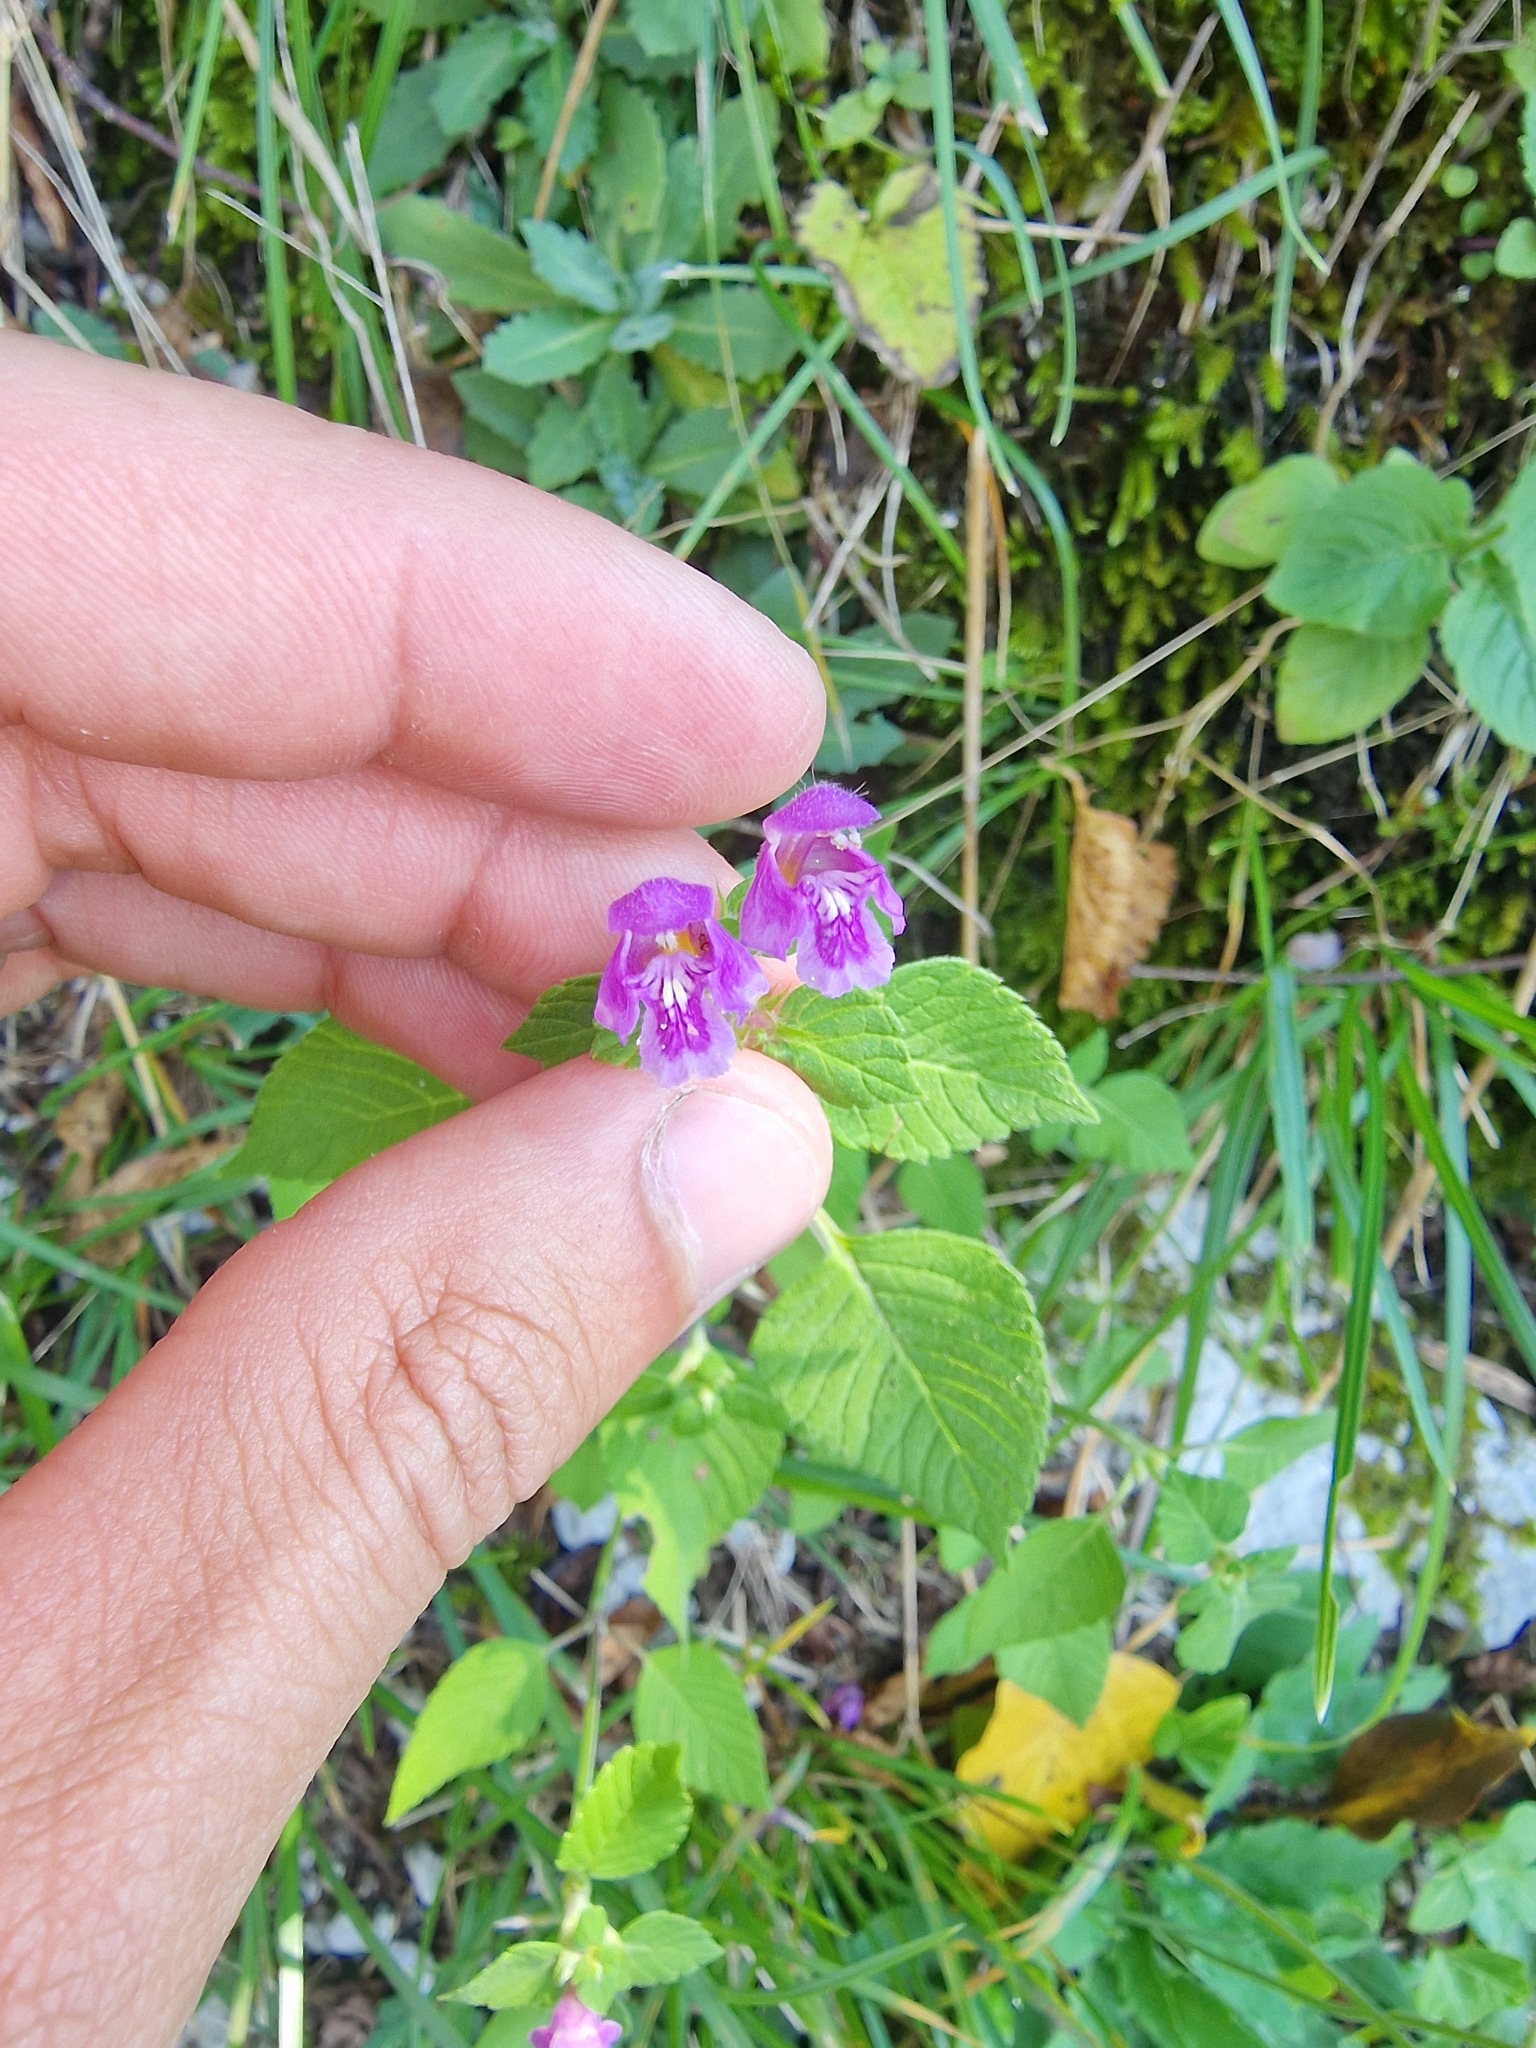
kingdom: Plantae
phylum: Tracheophyta
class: Magnoliopsida
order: Lamiales
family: Lamiaceae
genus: Galeopsis
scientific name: Galeopsis pubescens
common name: Downy hemp-nettle
